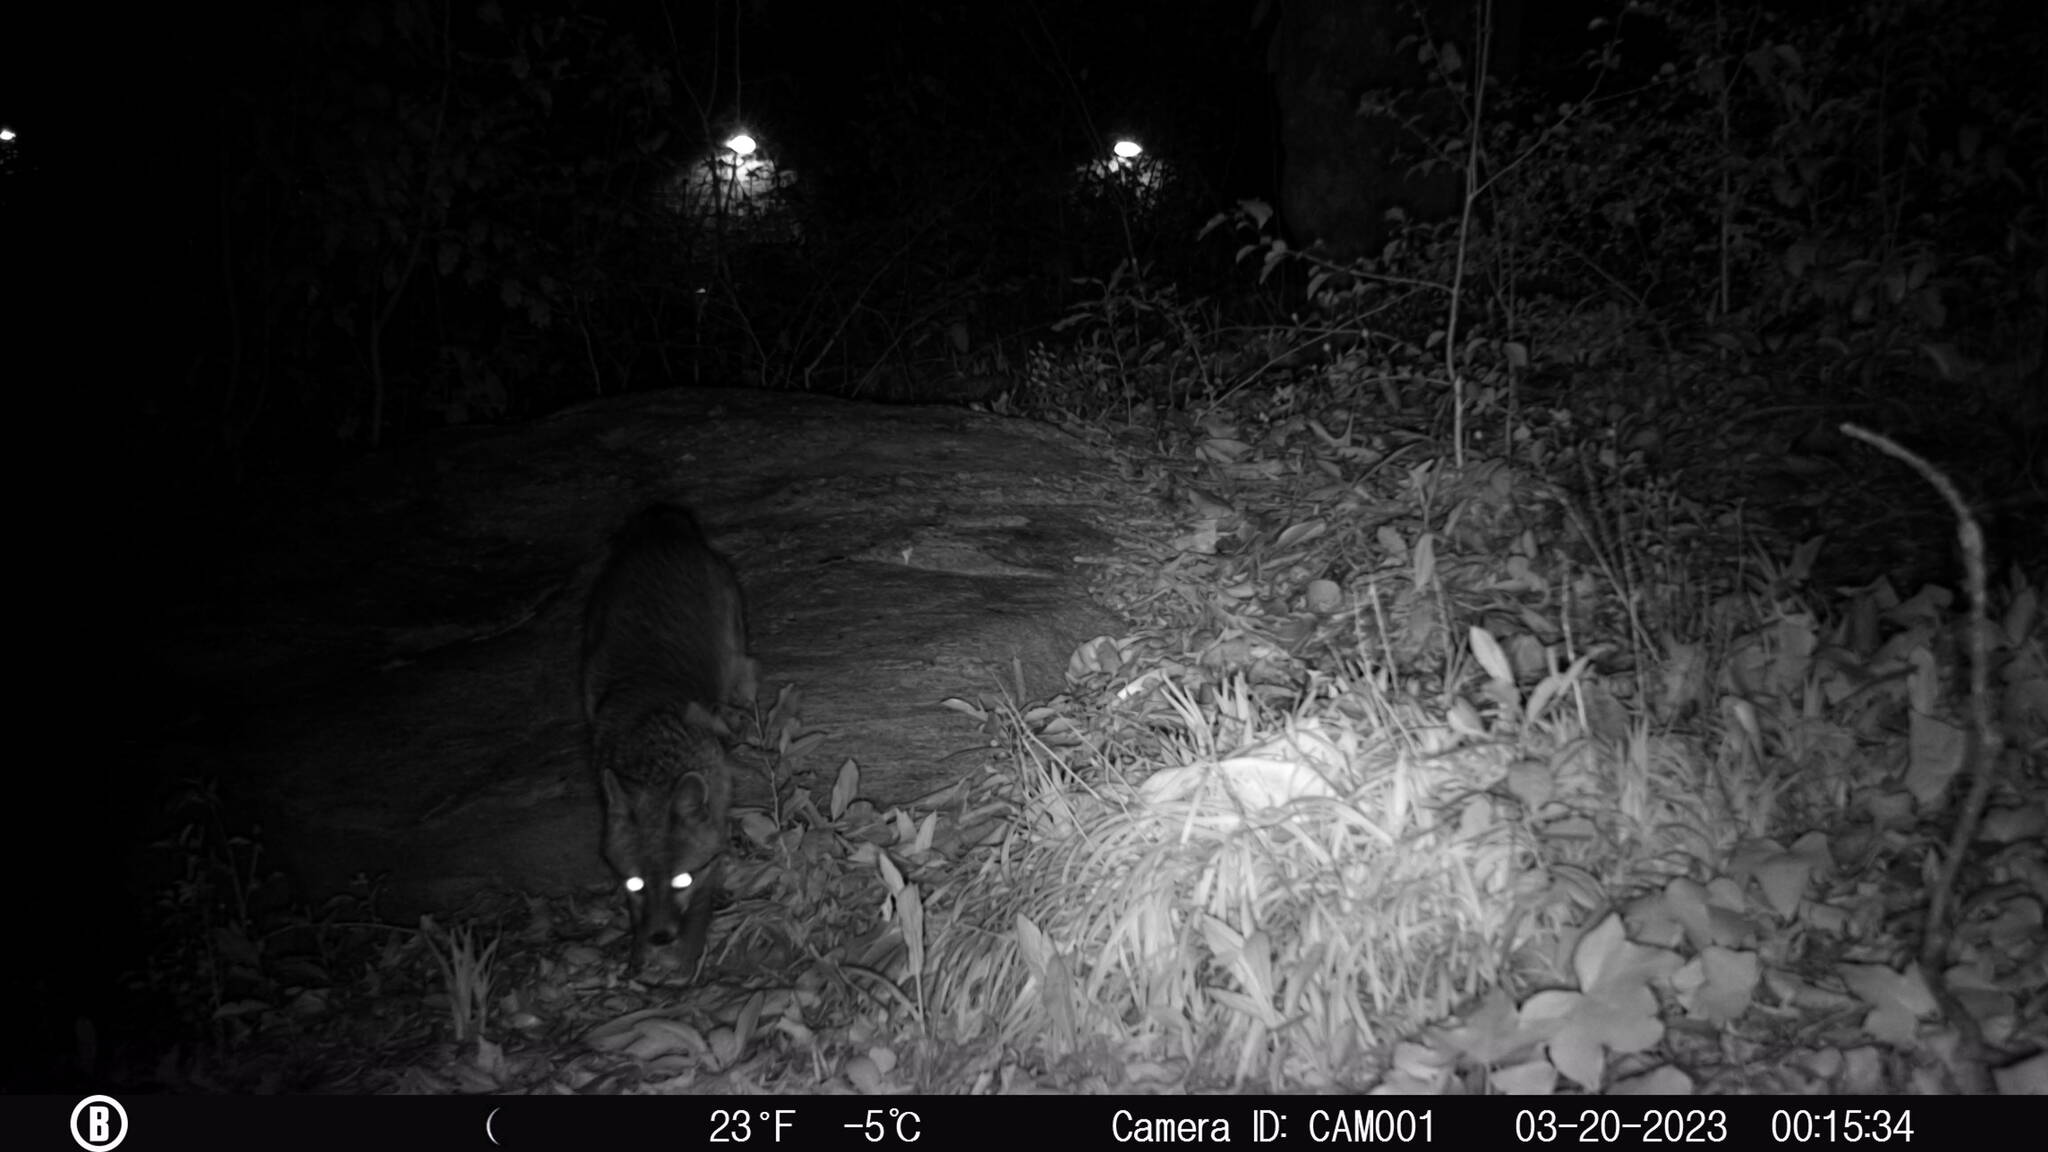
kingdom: Animalia
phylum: Chordata
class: Mammalia
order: Carnivora
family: Canidae
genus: Urocyon
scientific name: Urocyon cinereoargenteus
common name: Gray fox
